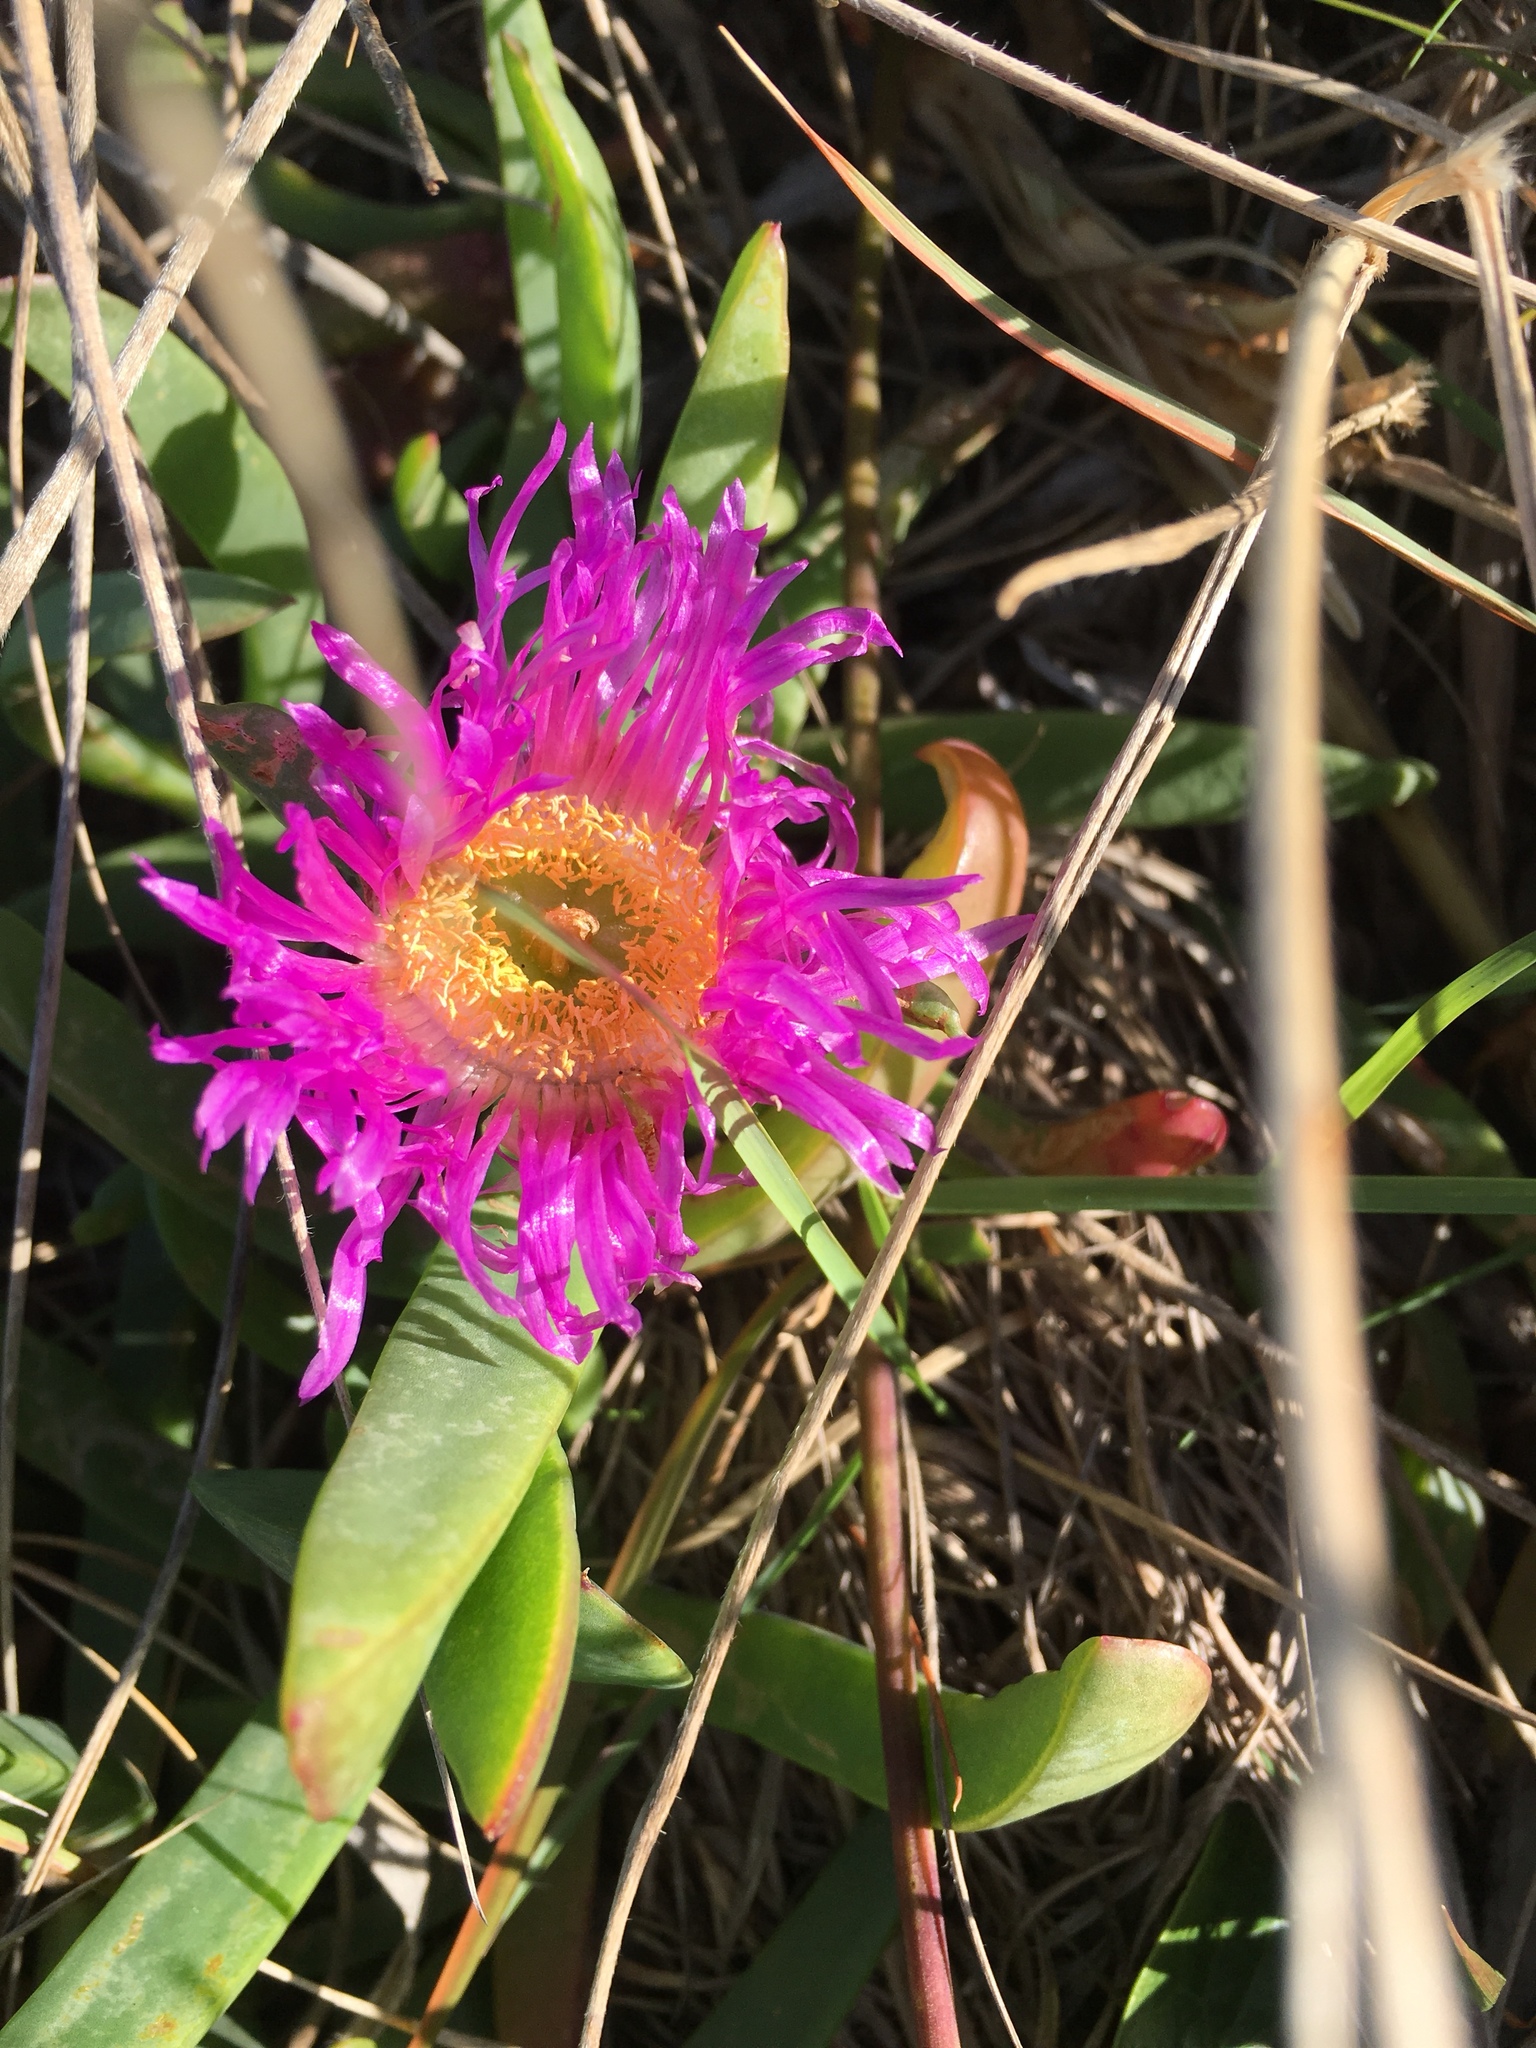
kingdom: Plantae
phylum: Tracheophyta
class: Magnoliopsida
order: Caryophyllales
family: Aizoaceae
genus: Carpobrotus
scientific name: Carpobrotus glaucescens
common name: Angular sea-fig
